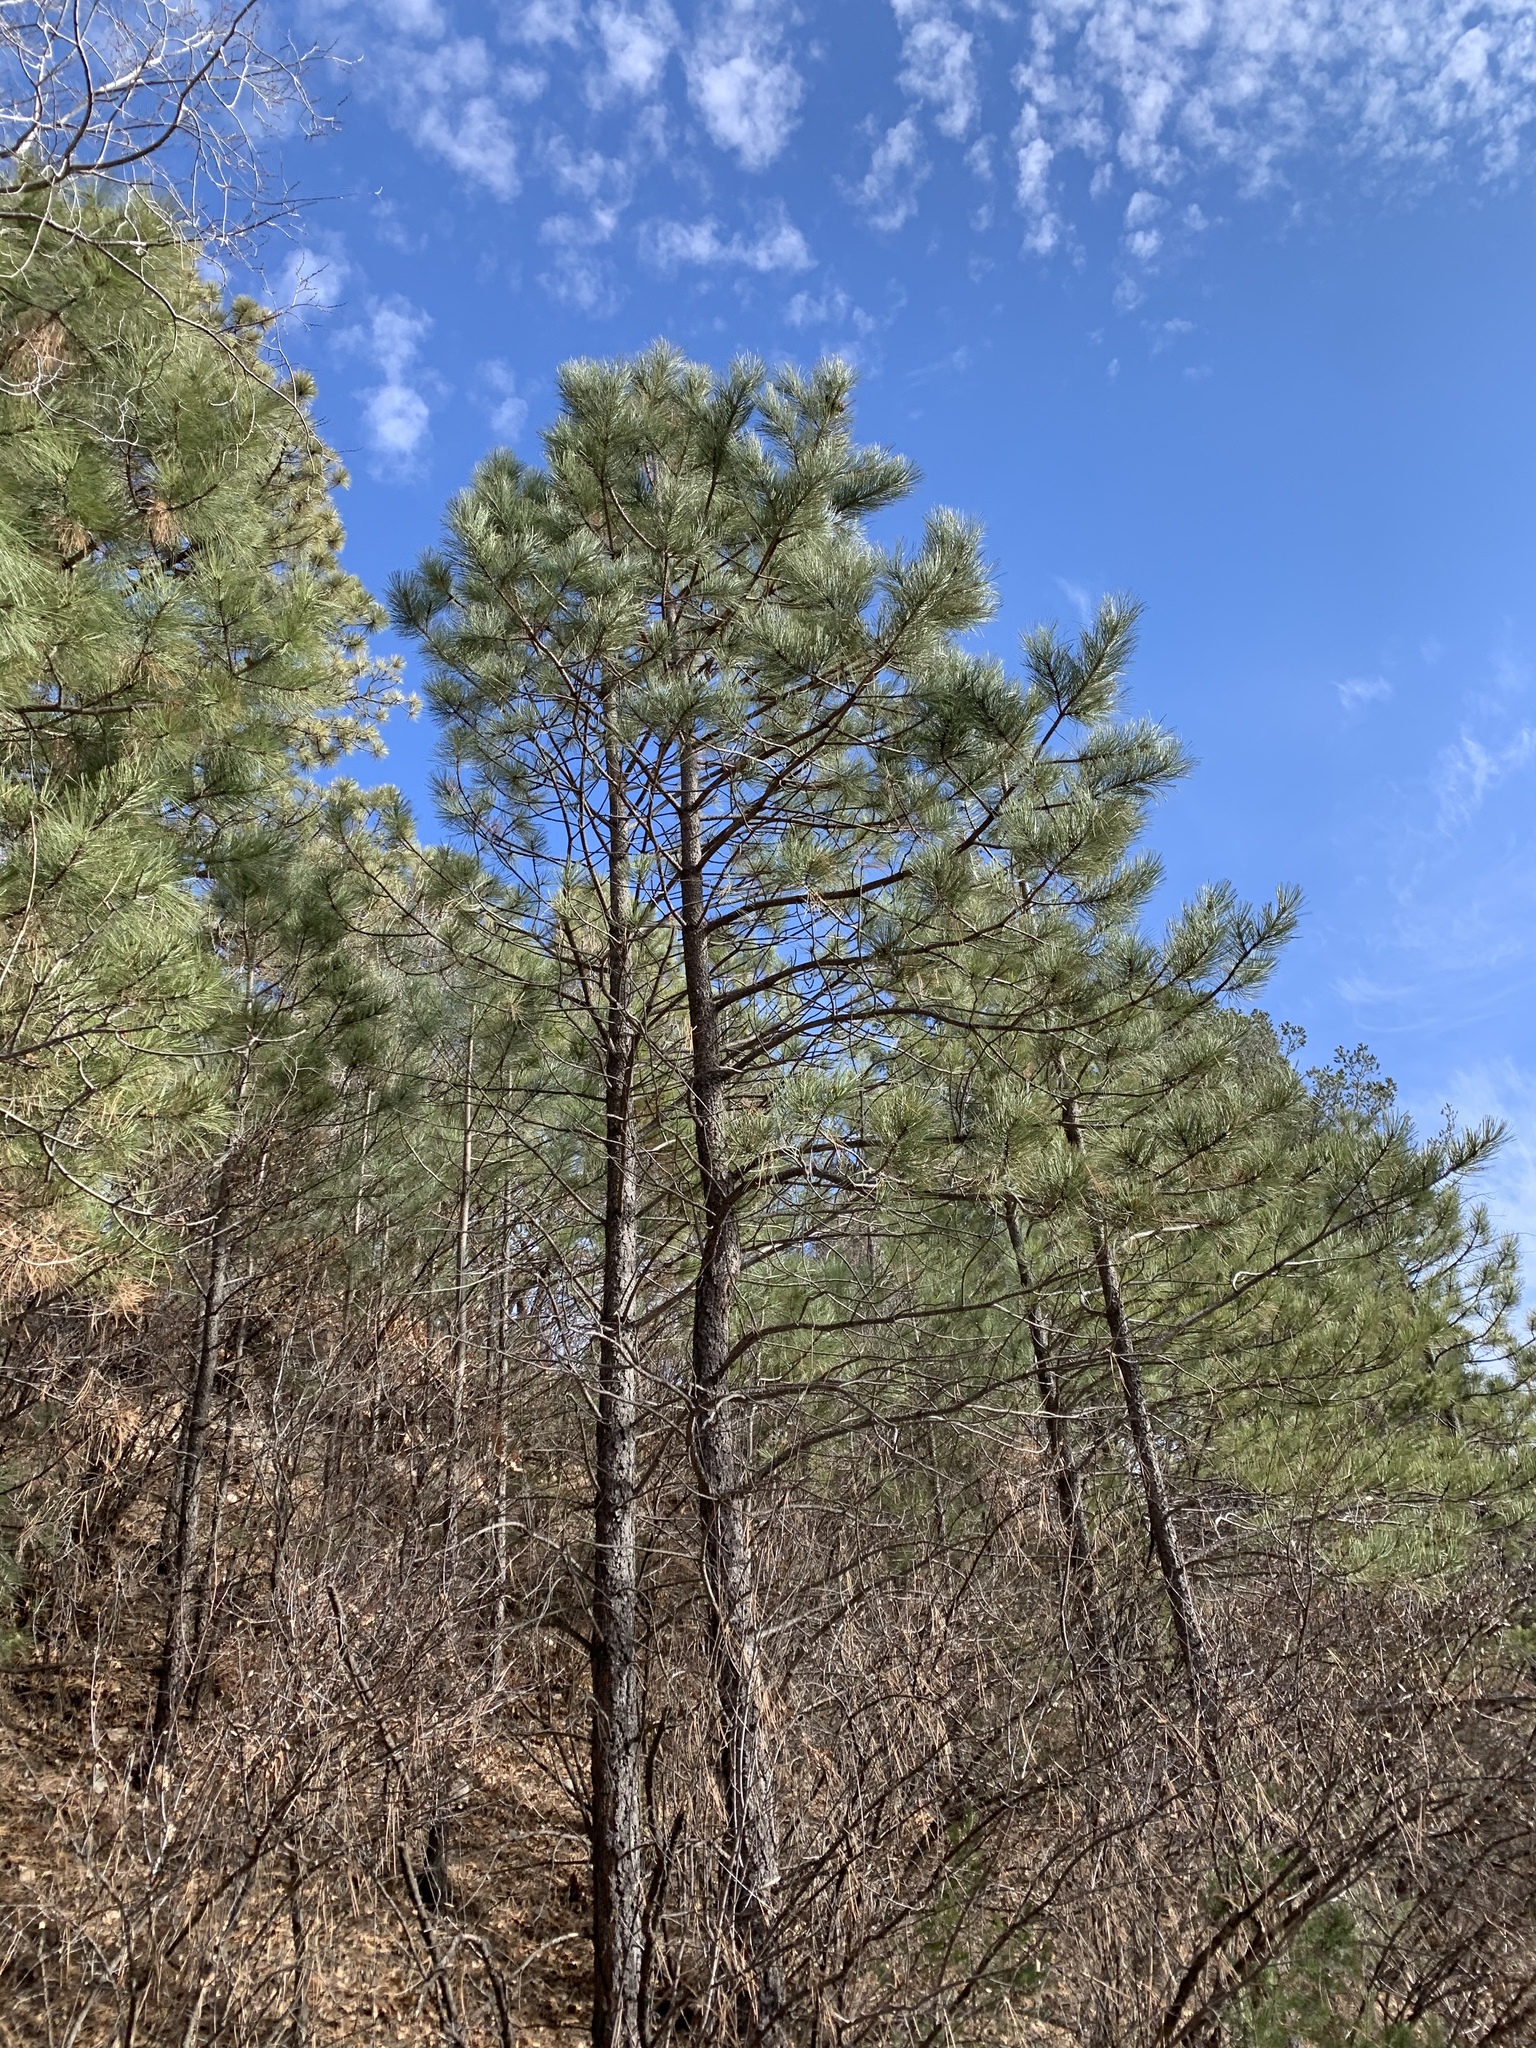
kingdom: Plantae
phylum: Tracheophyta
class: Pinopsida
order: Pinales
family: Pinaceae
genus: Pinus
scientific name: Pinus ponderosa
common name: Western yellow-pine
